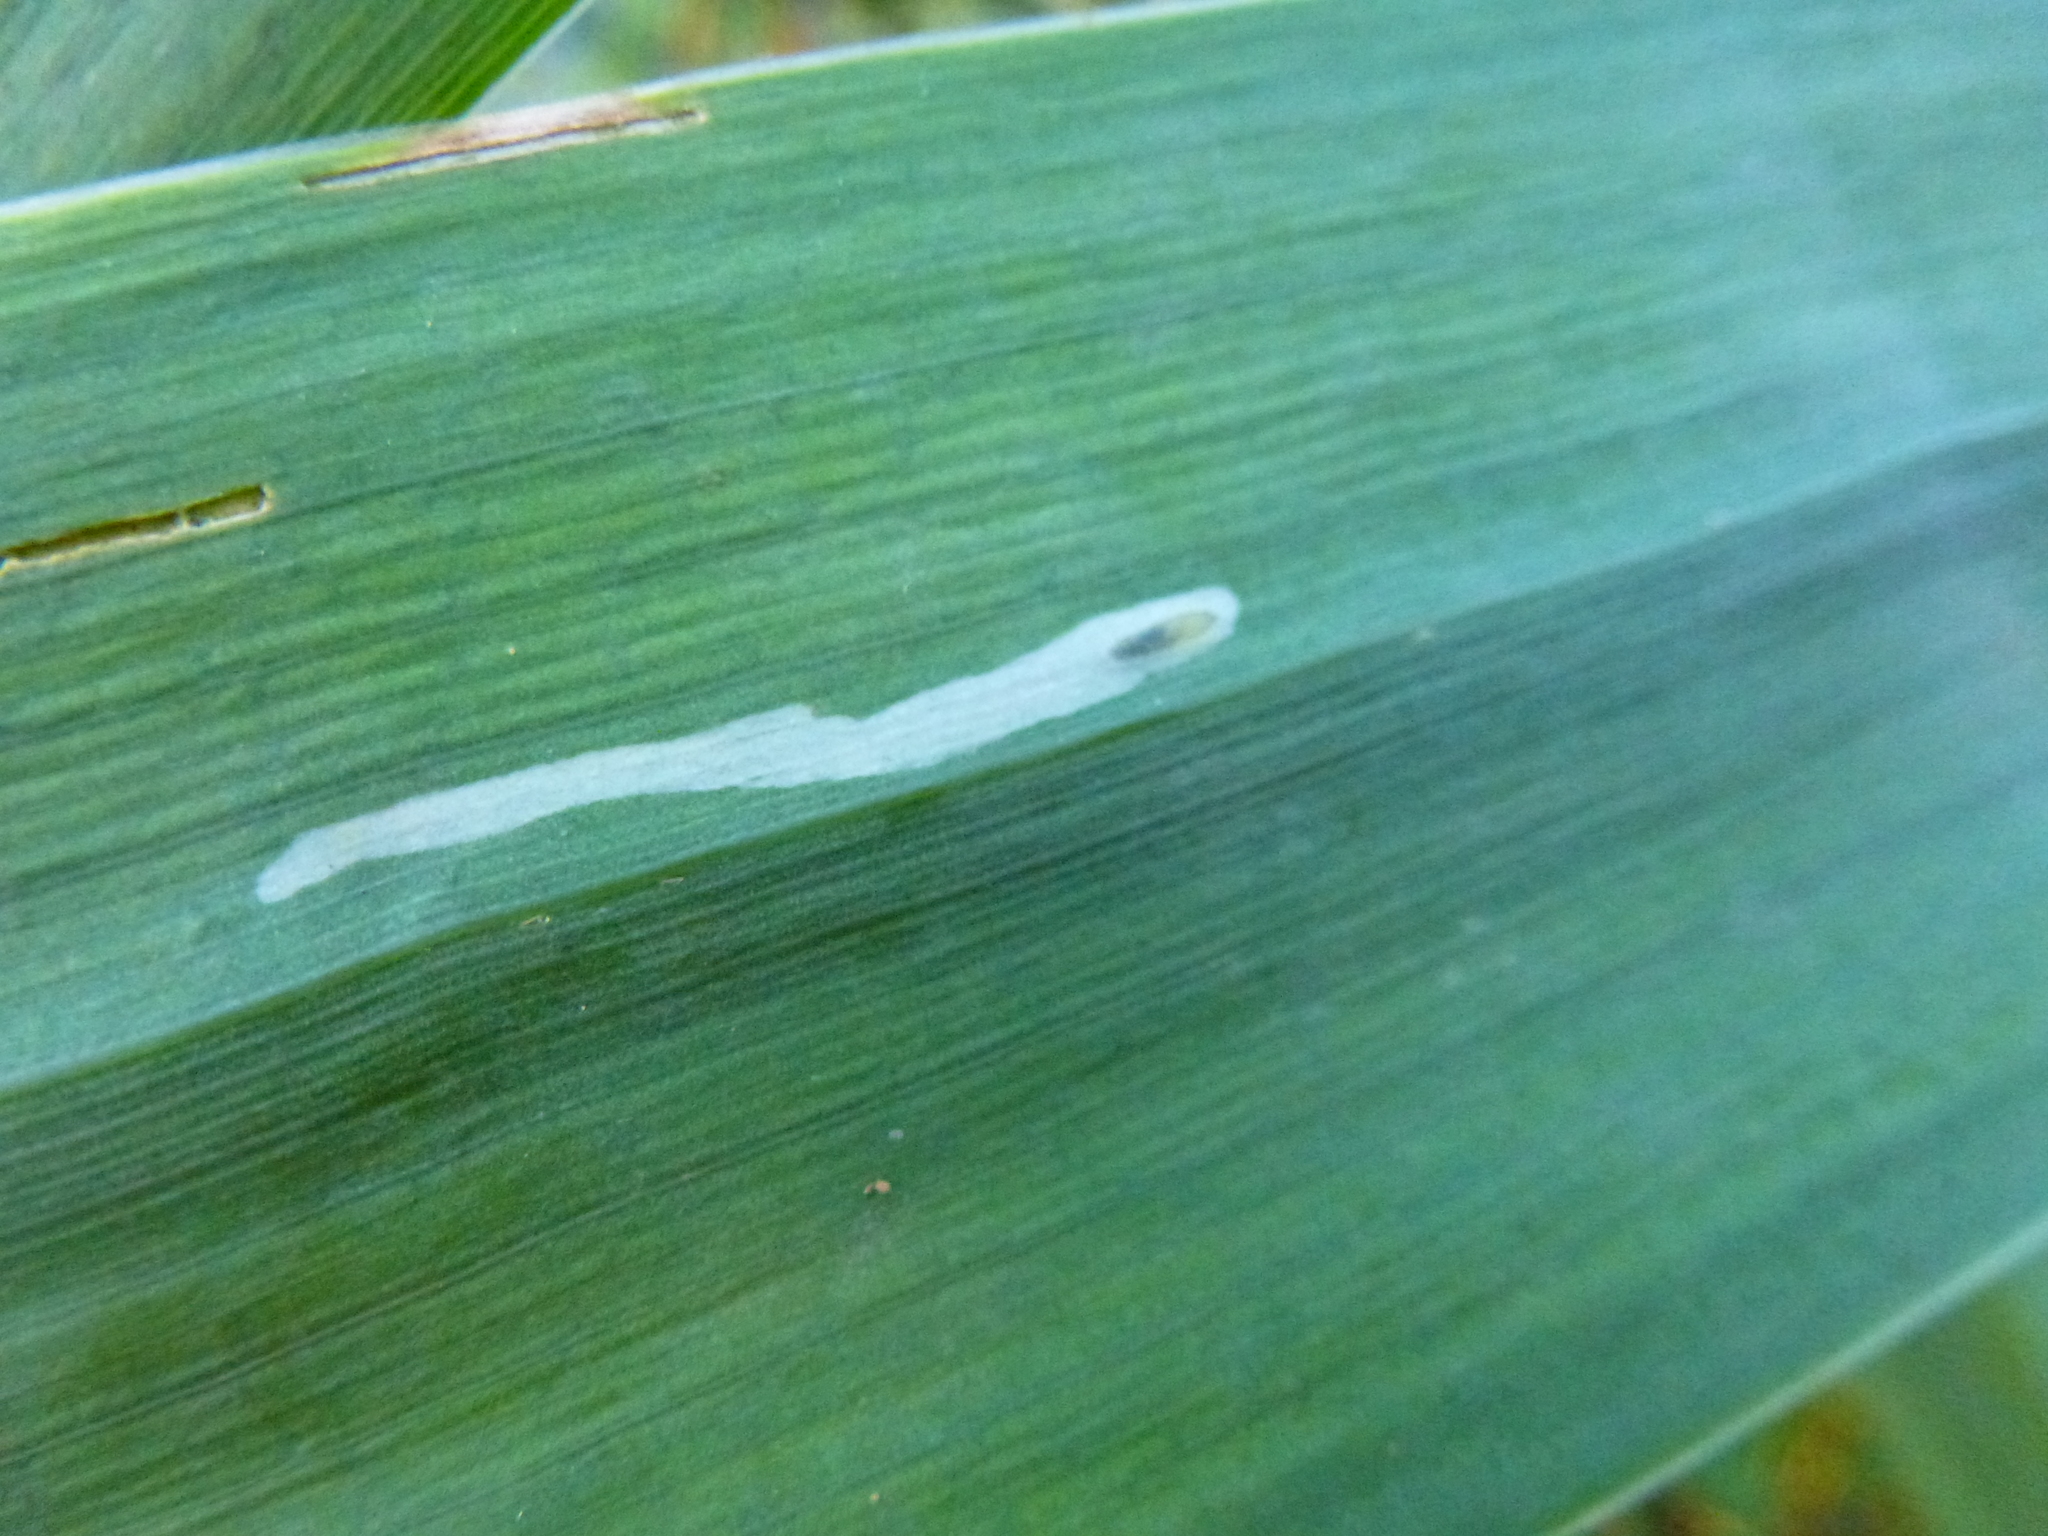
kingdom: Animalia
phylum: Arthropoda
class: Insecta
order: Diptera
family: Agromyzidae
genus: Cerodontha
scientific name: Cerodontha ircos
